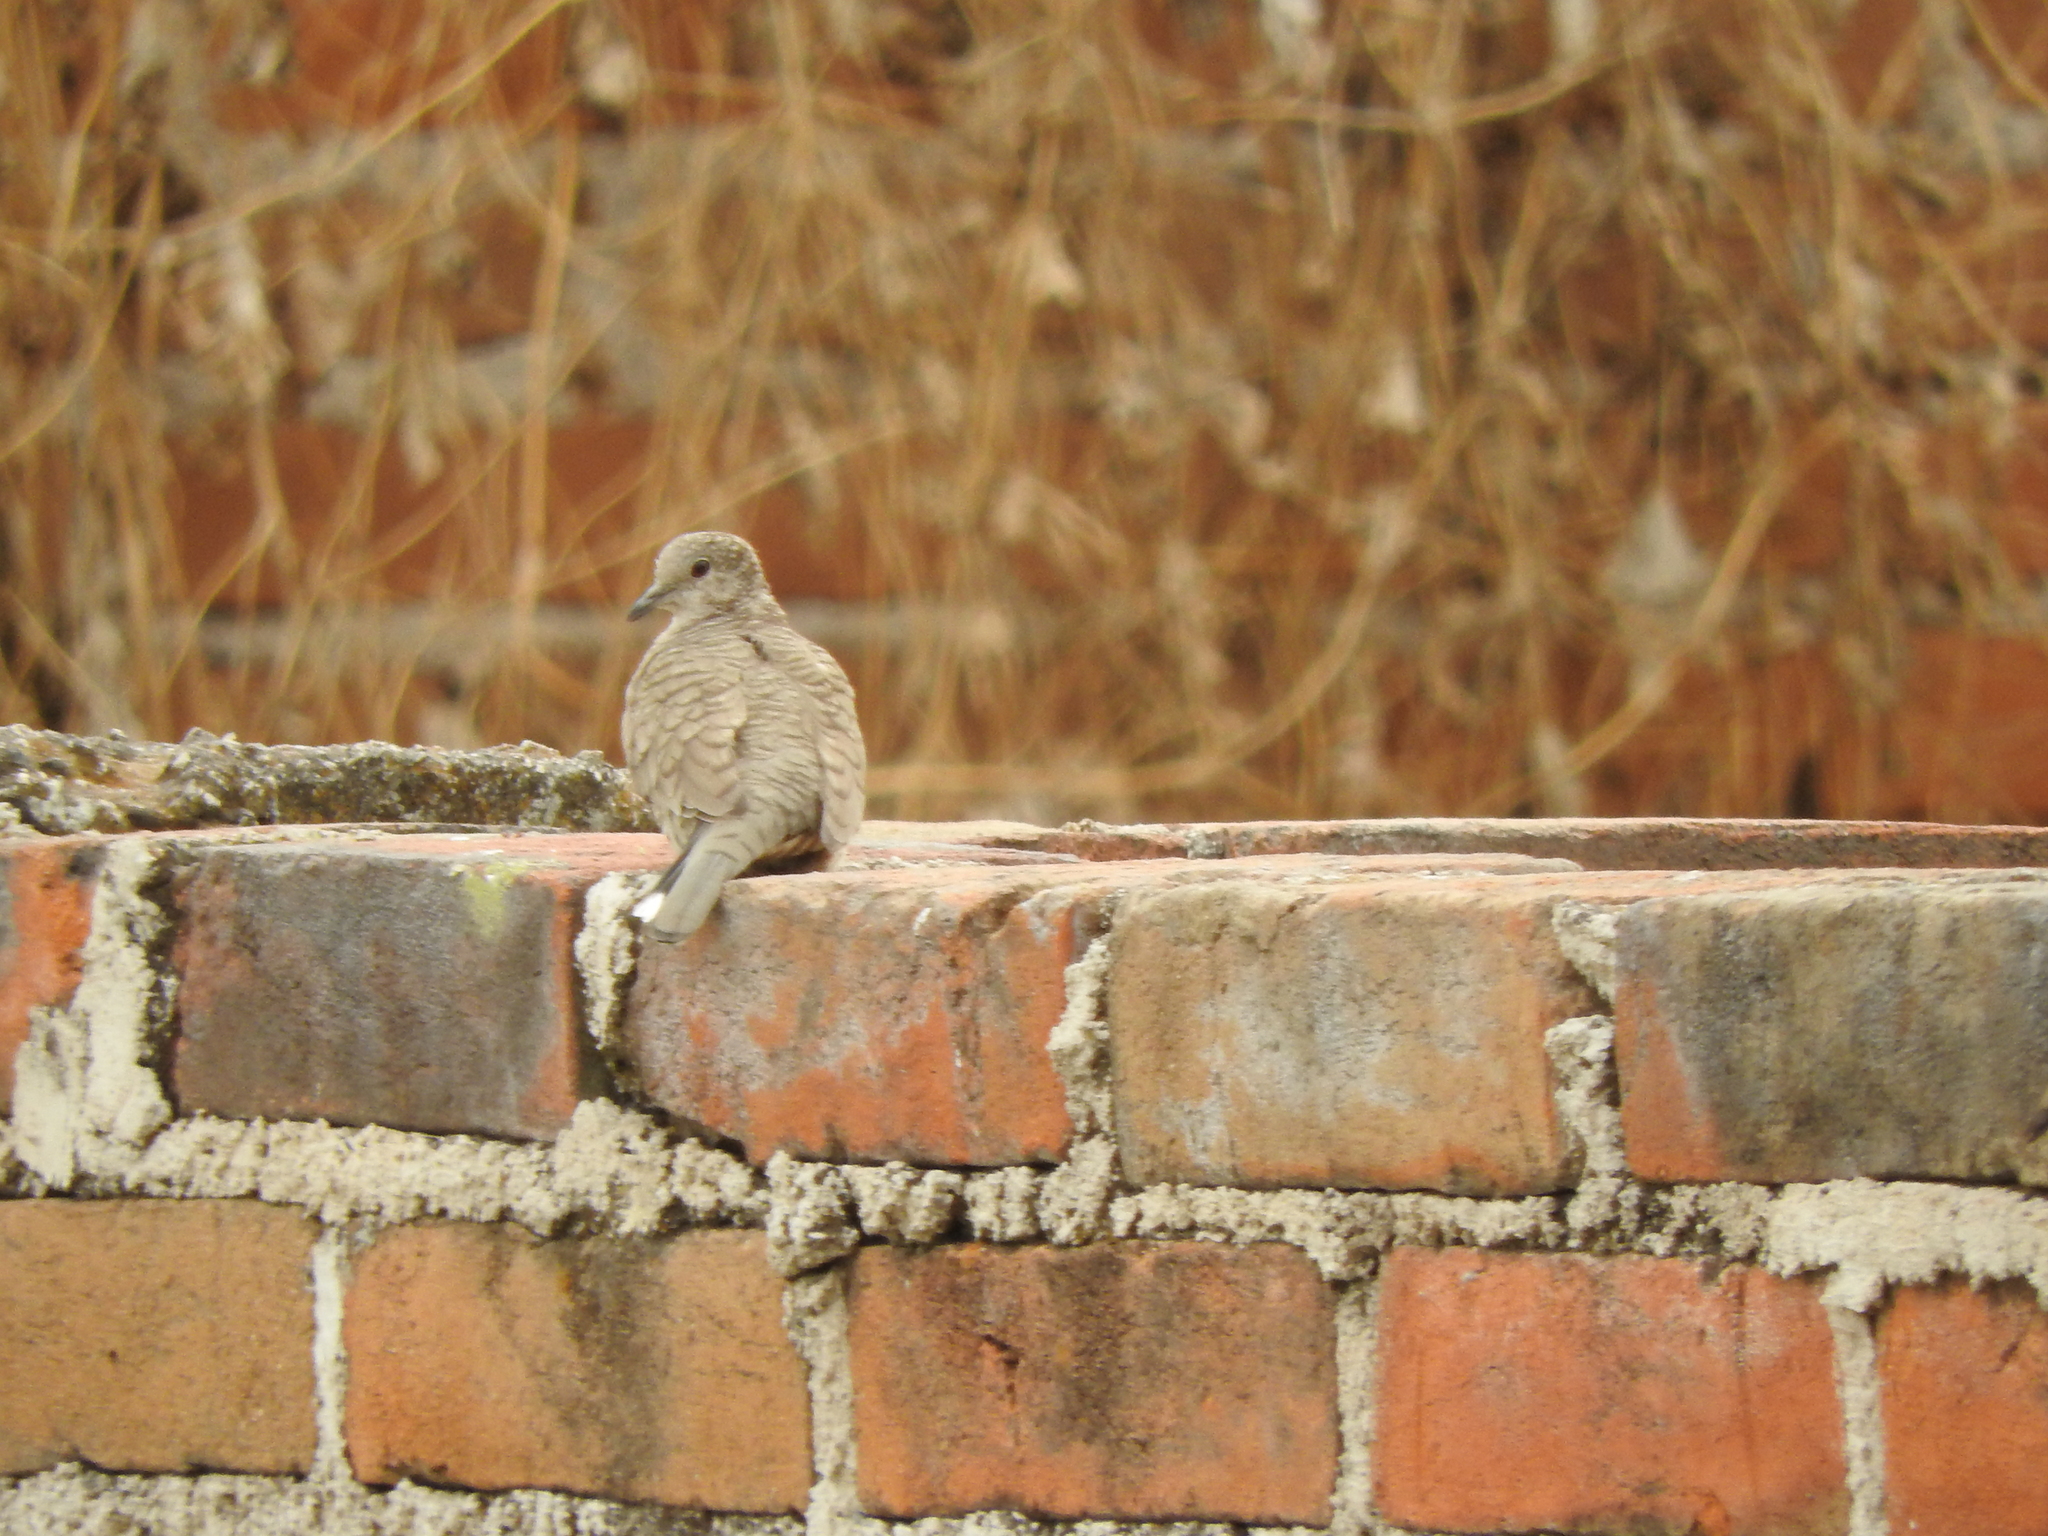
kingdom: Animalia
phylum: Chordata
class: Aves
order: Columbiformes
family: Columbidae
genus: Columbina
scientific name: Columbina inca
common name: Inca dove
